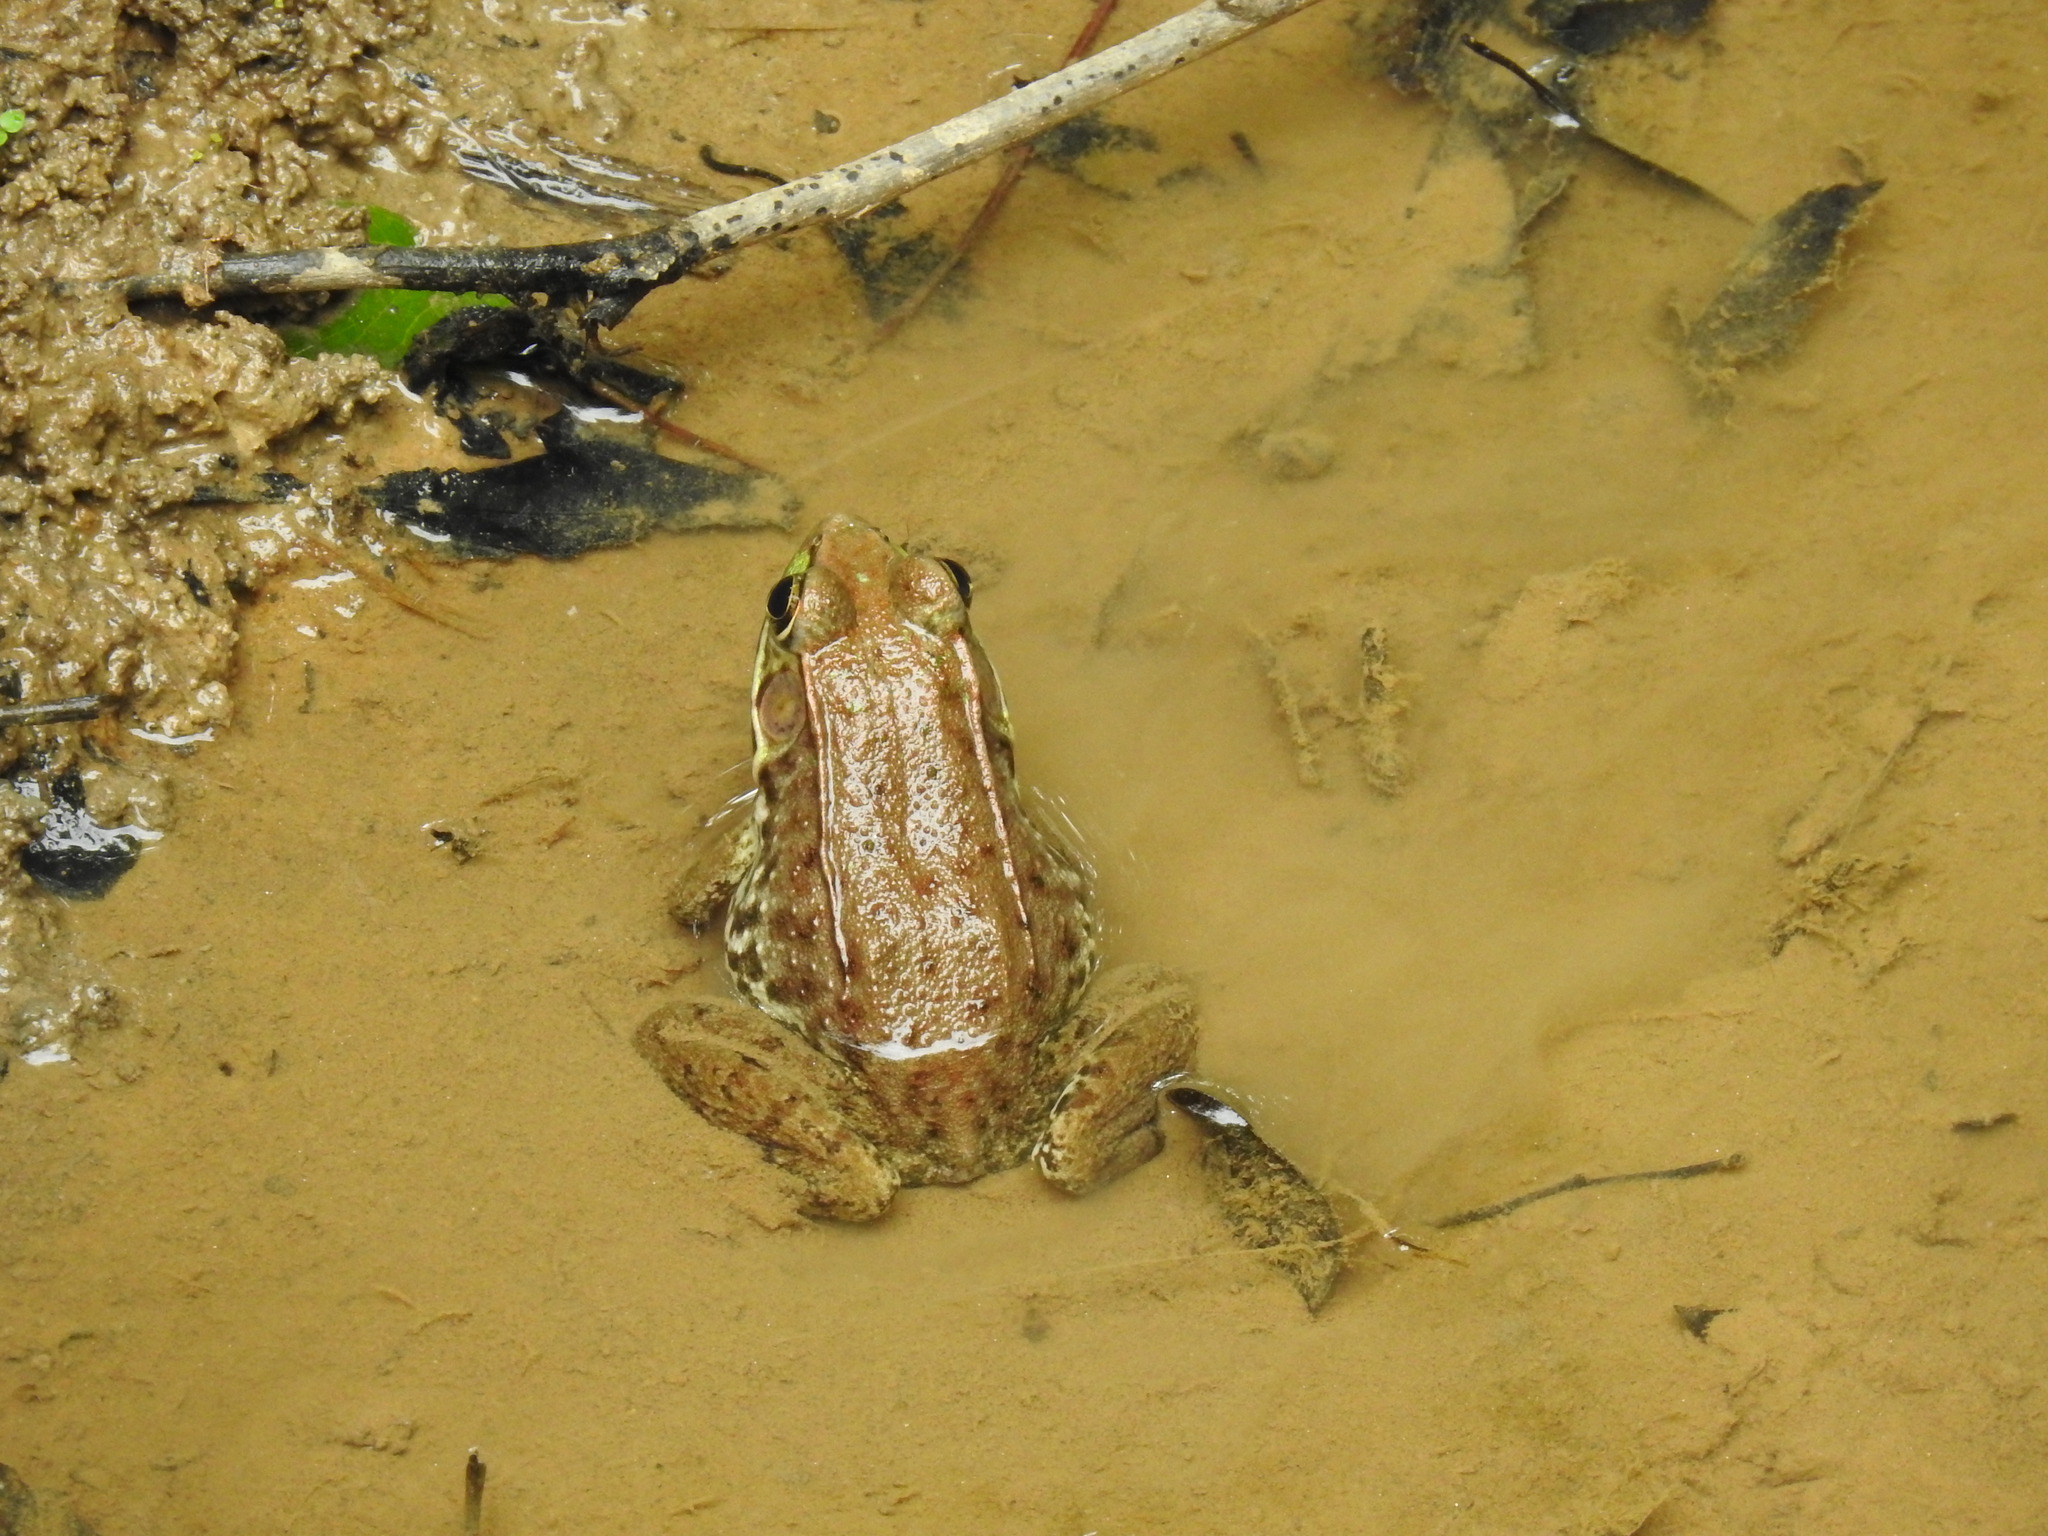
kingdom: Animalia
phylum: Chordata
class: Amphibia
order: Anura
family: Ranidae
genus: Lithobates
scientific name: Lithobates clamitans
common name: Green frog
